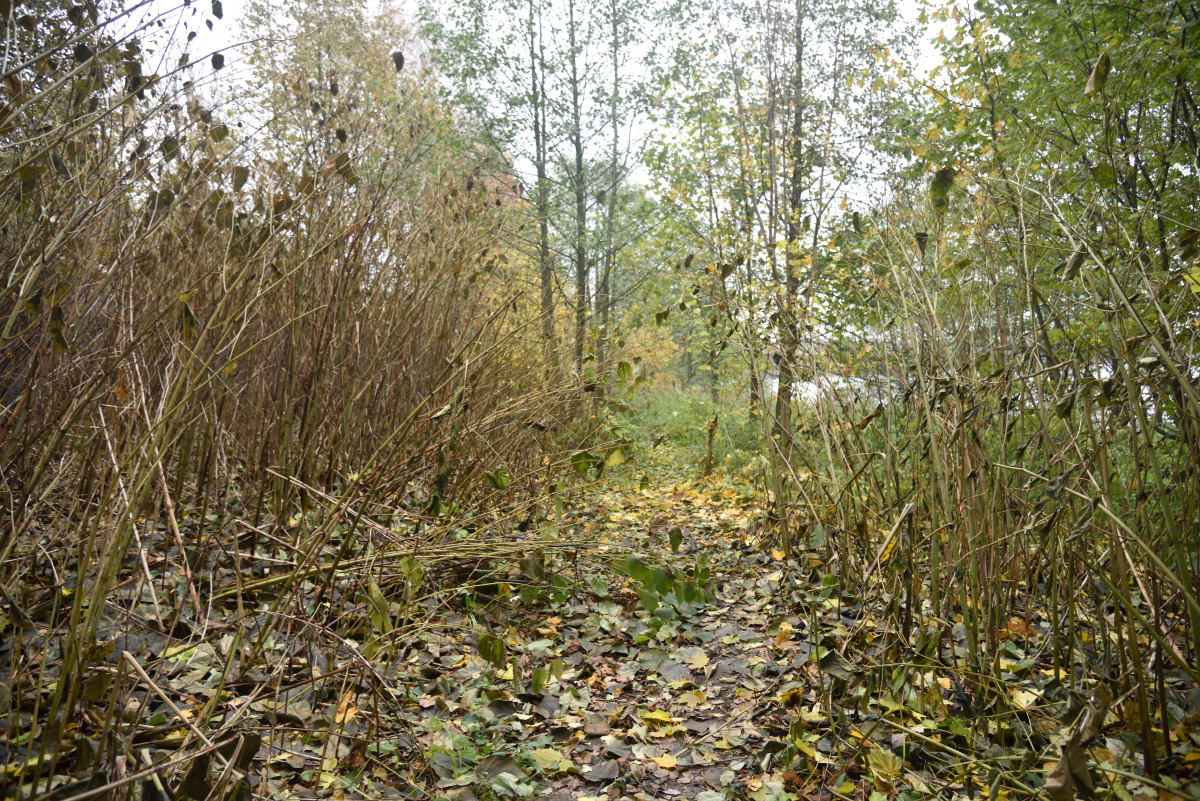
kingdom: Plantae
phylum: Tracheophyta
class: Magnoliopsida
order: Caryophyllales
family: Polygonaceae
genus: Reynoutria
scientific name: Reynoutria japonica
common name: Japanese knotweed
